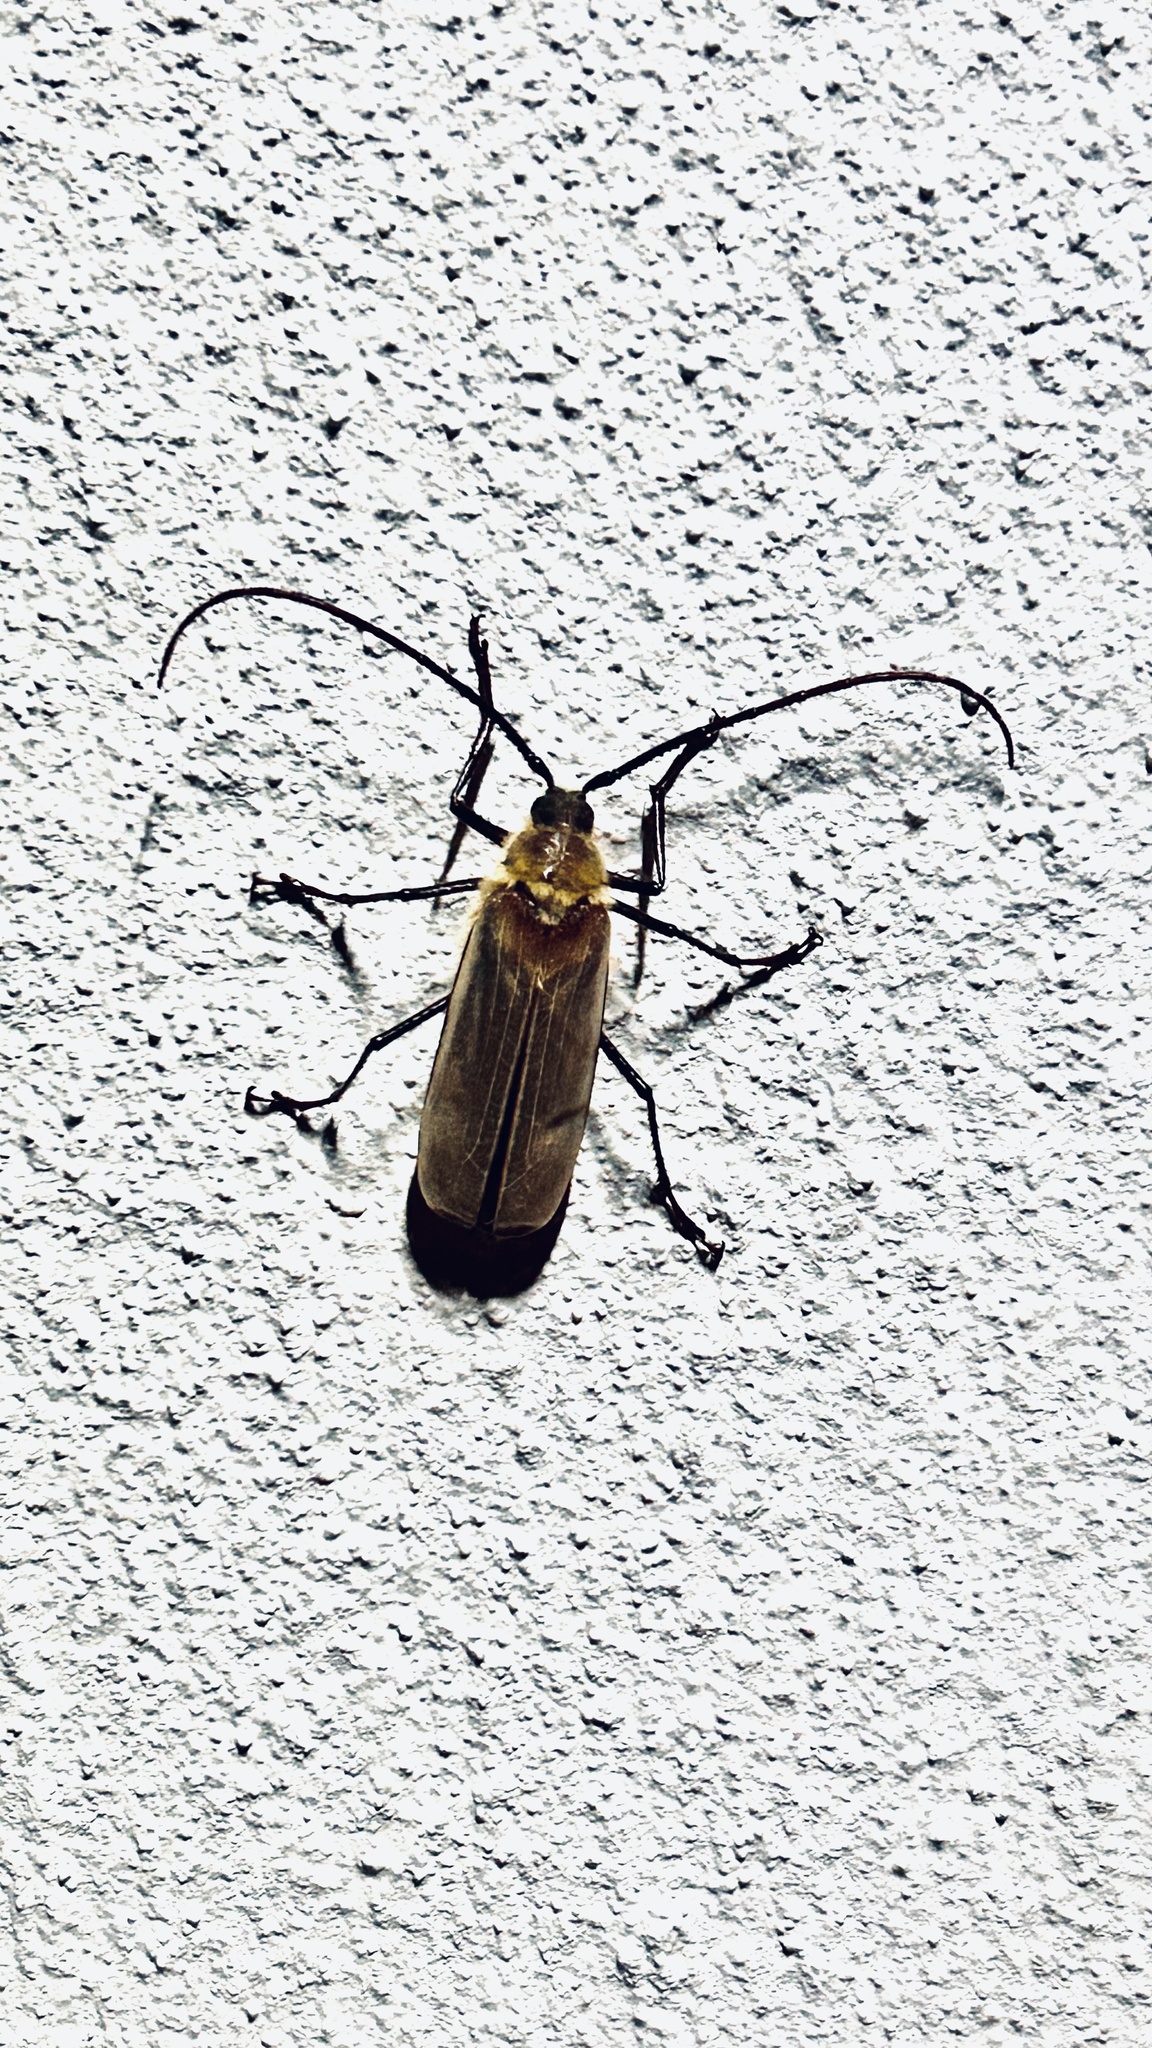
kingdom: Animalia
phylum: Arthropoda
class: Insecta
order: Coleoptera
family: Cerambycidae
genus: Erioderus
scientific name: Erioderus hirtus
